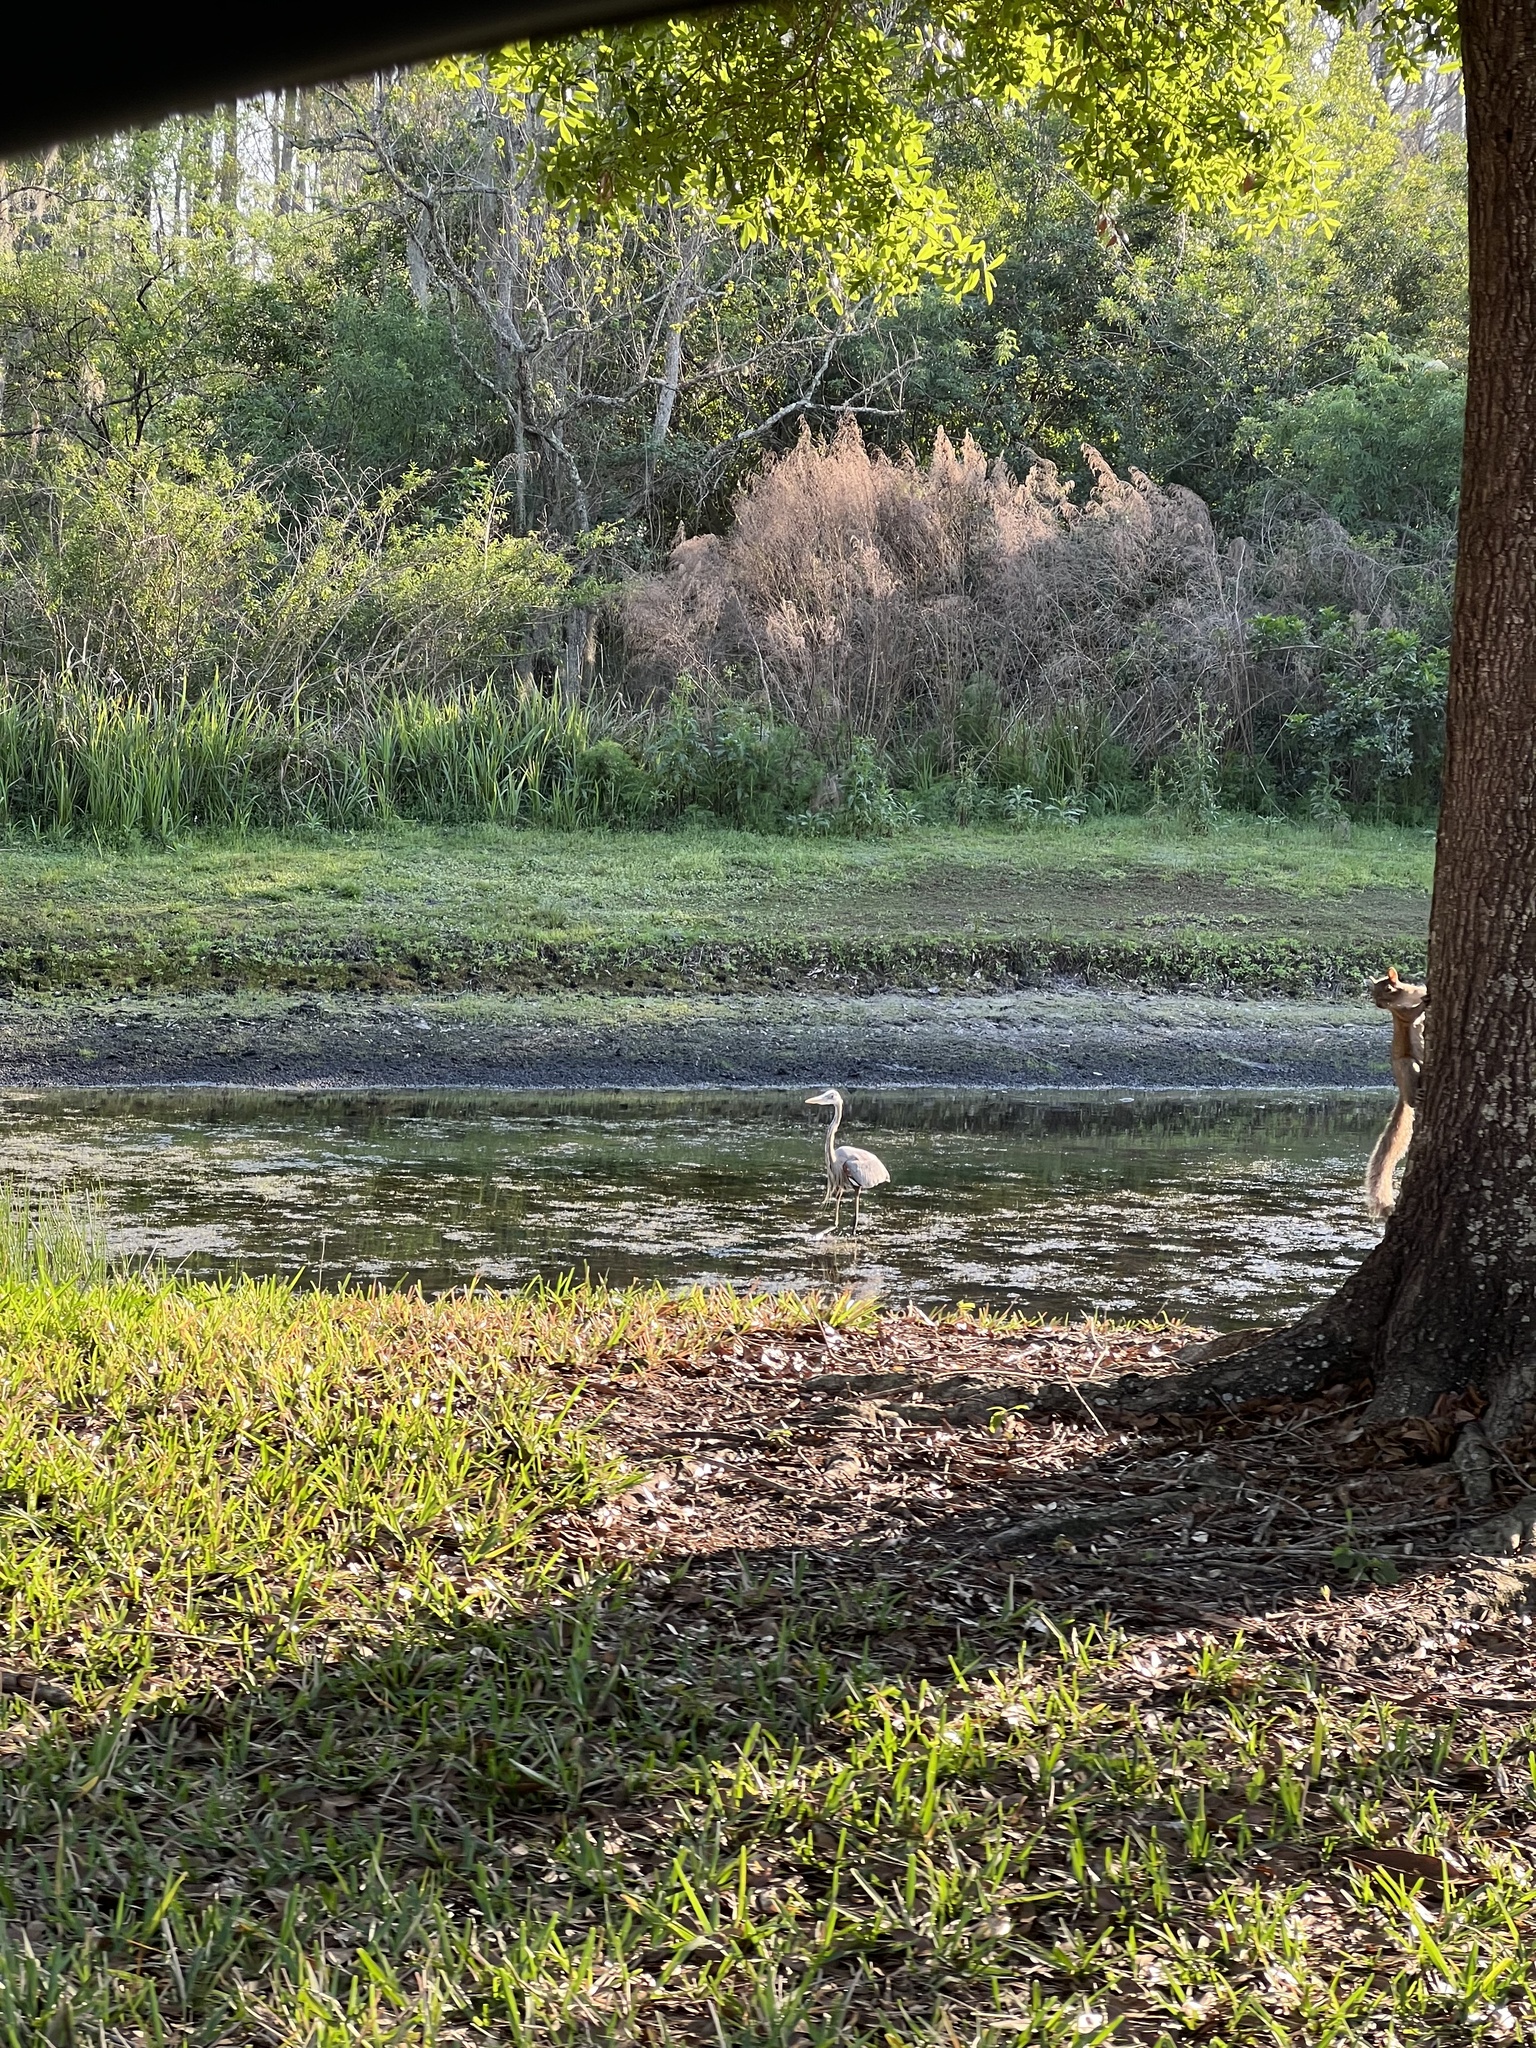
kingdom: Animalia
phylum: Chordata
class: Aves
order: Pelecaniformes
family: Ardeidae
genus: Ardea
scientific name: Ardea herodias
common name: Great blue heron
